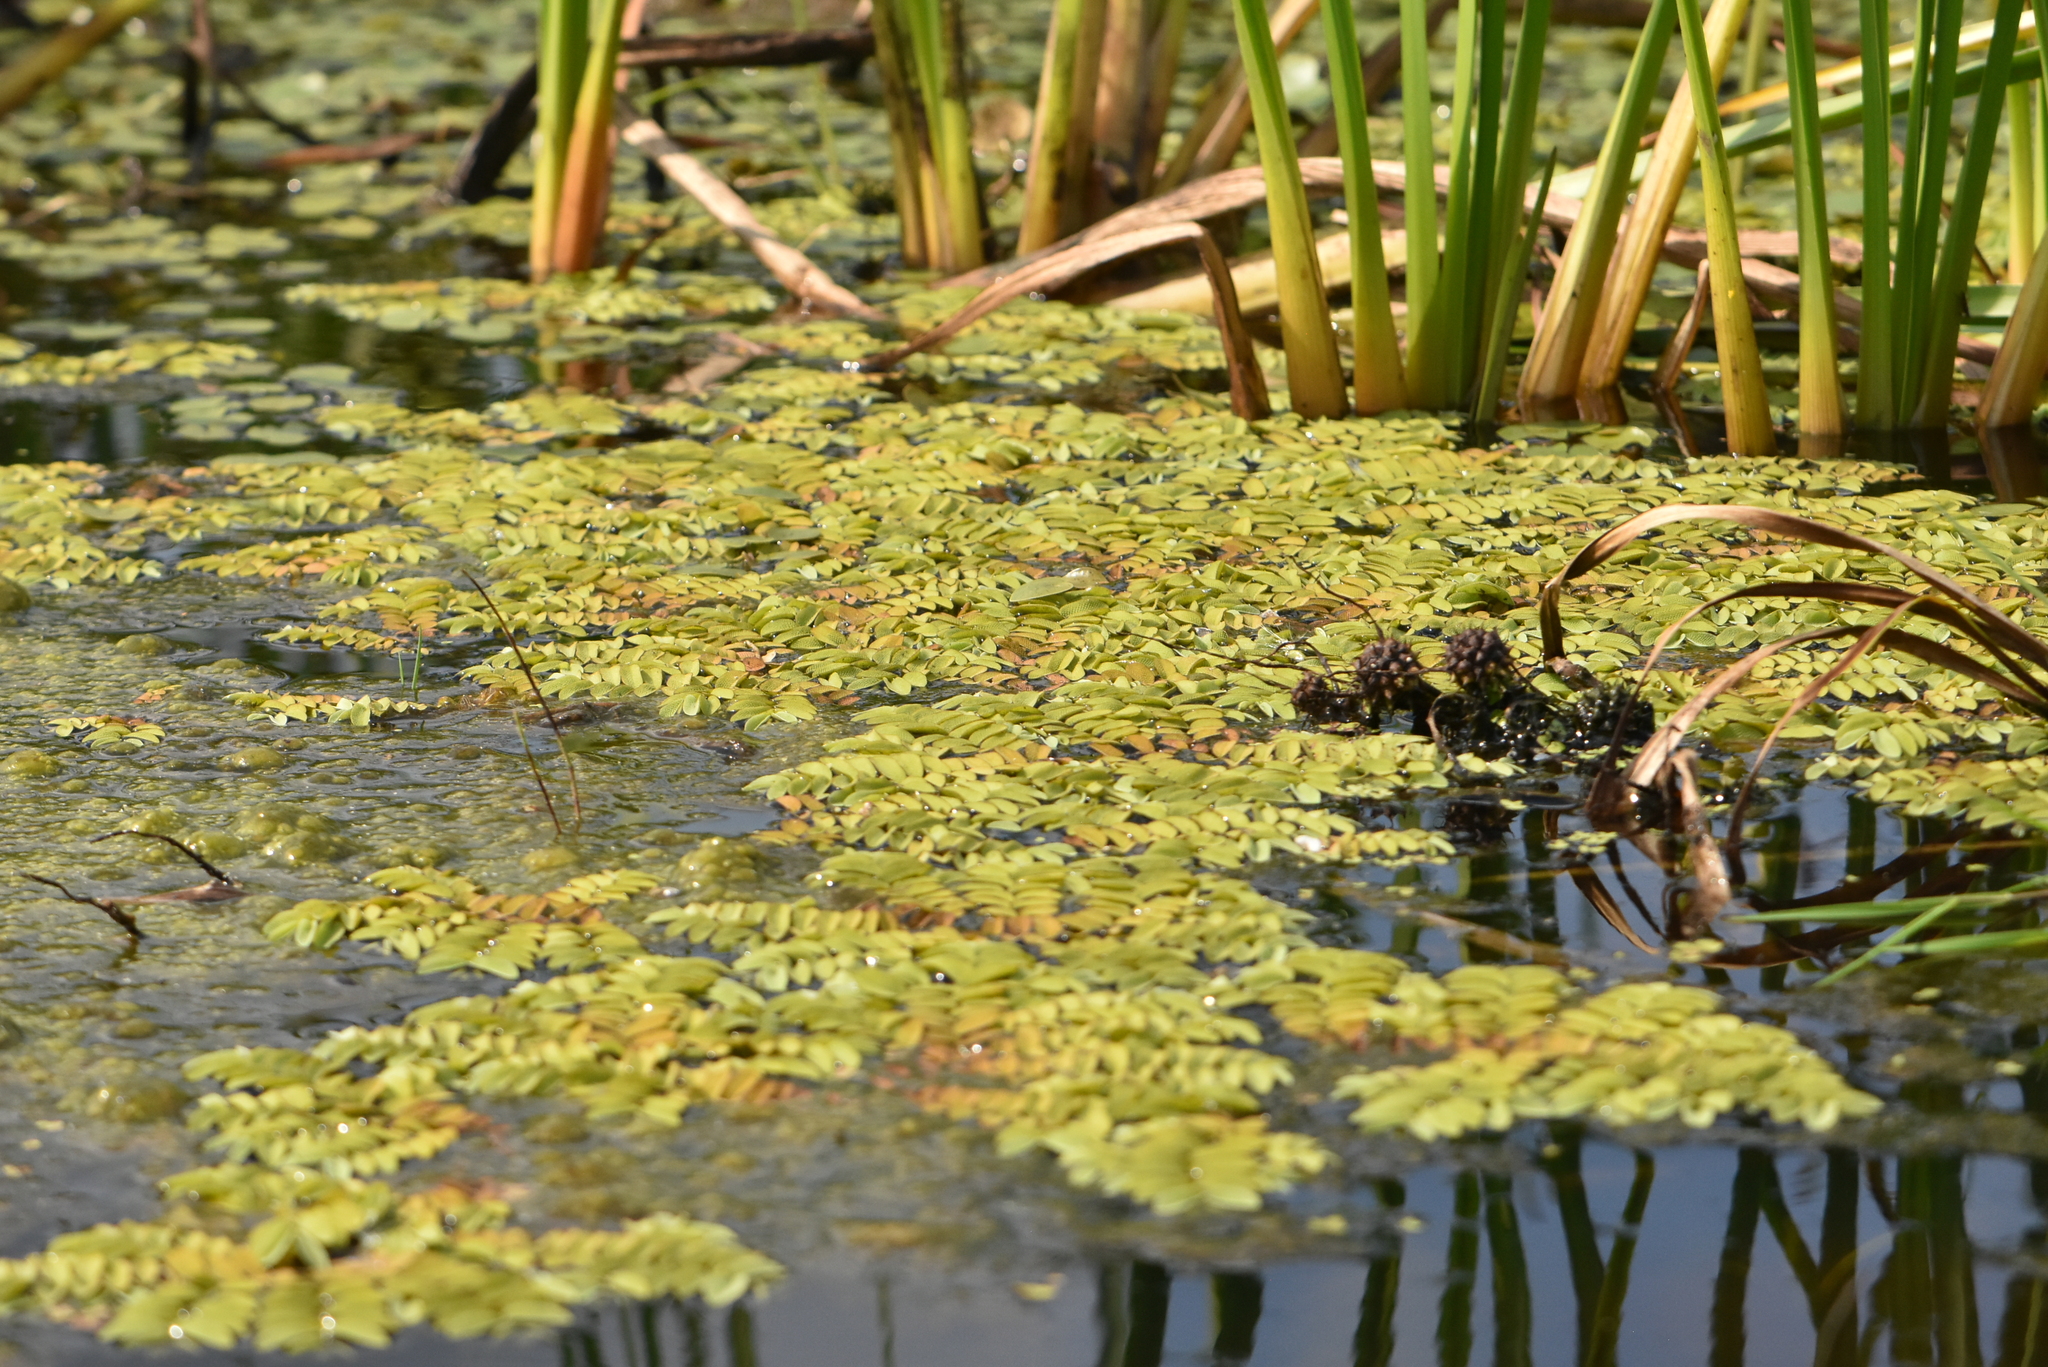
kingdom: Plantae
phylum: Tracheophyta
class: Polypodiopsida
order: Salviniales
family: Salviniaceae
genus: Salvinia
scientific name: Salvinia natans
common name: Floating fern
